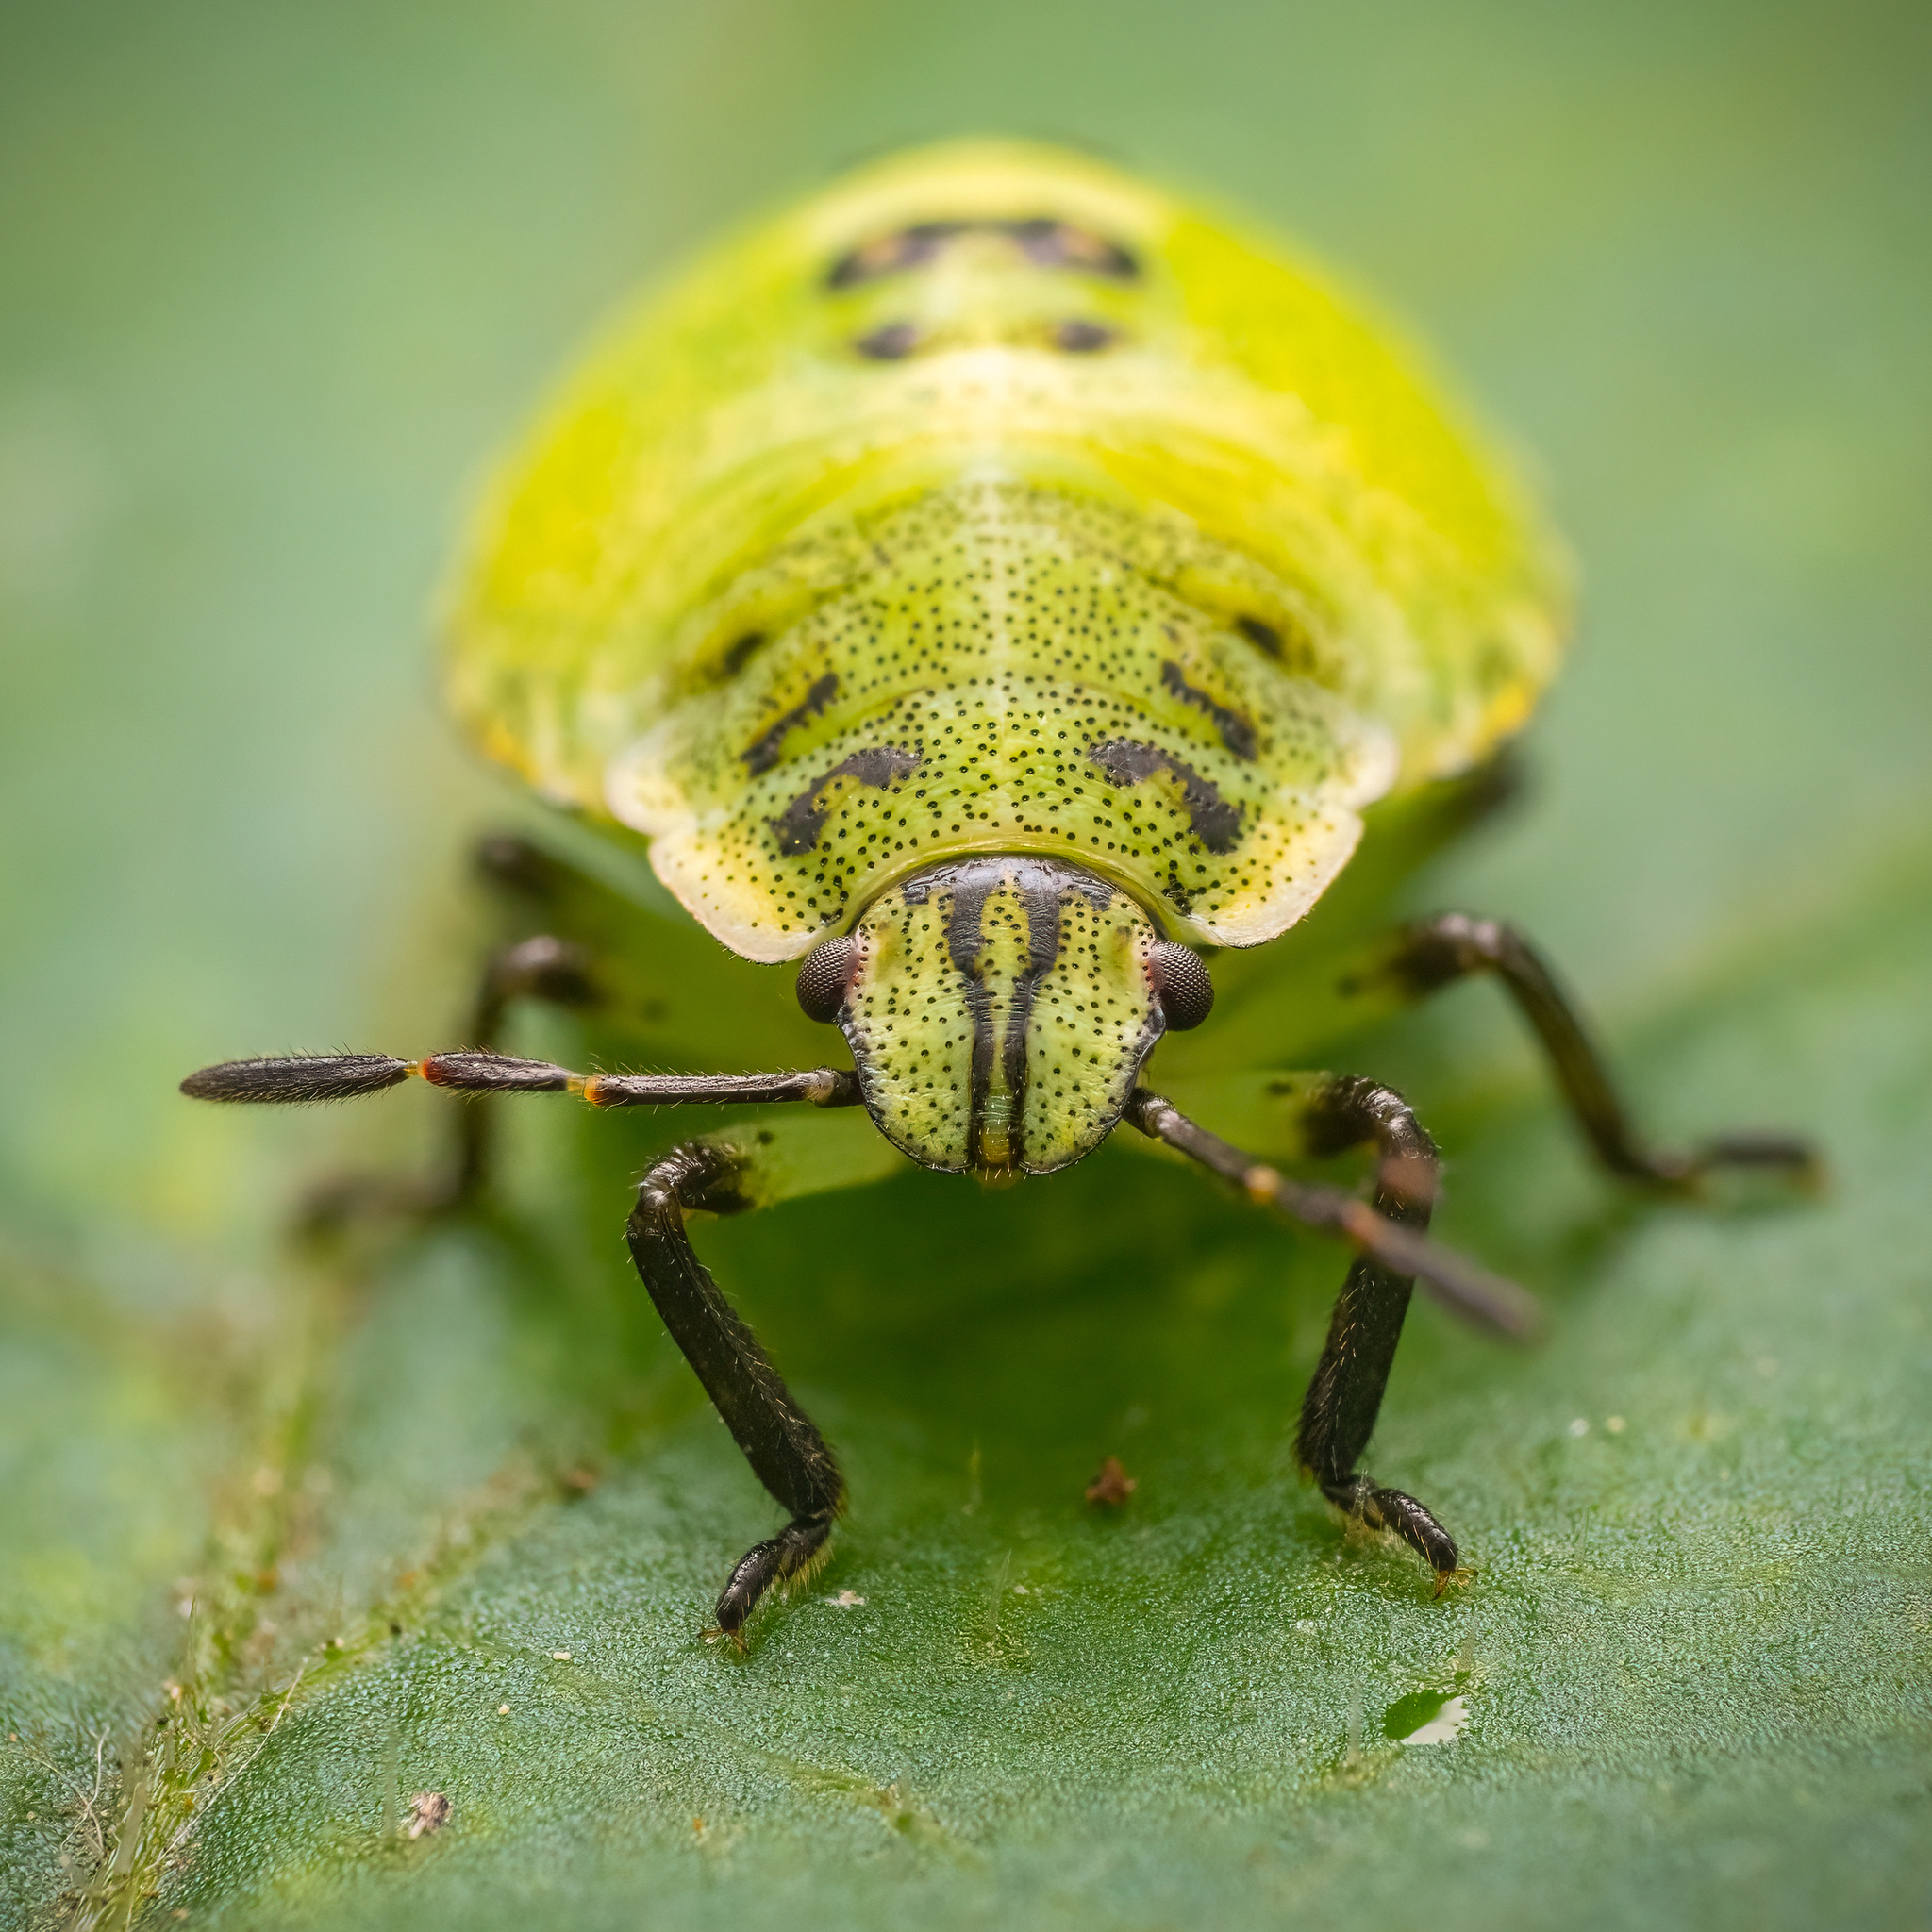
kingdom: Animalia
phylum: Arthropoda
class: Insecta
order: Hemiptera
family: Pentatomidae
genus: Palomena
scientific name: Palomena prasina
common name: Green shieldbug
